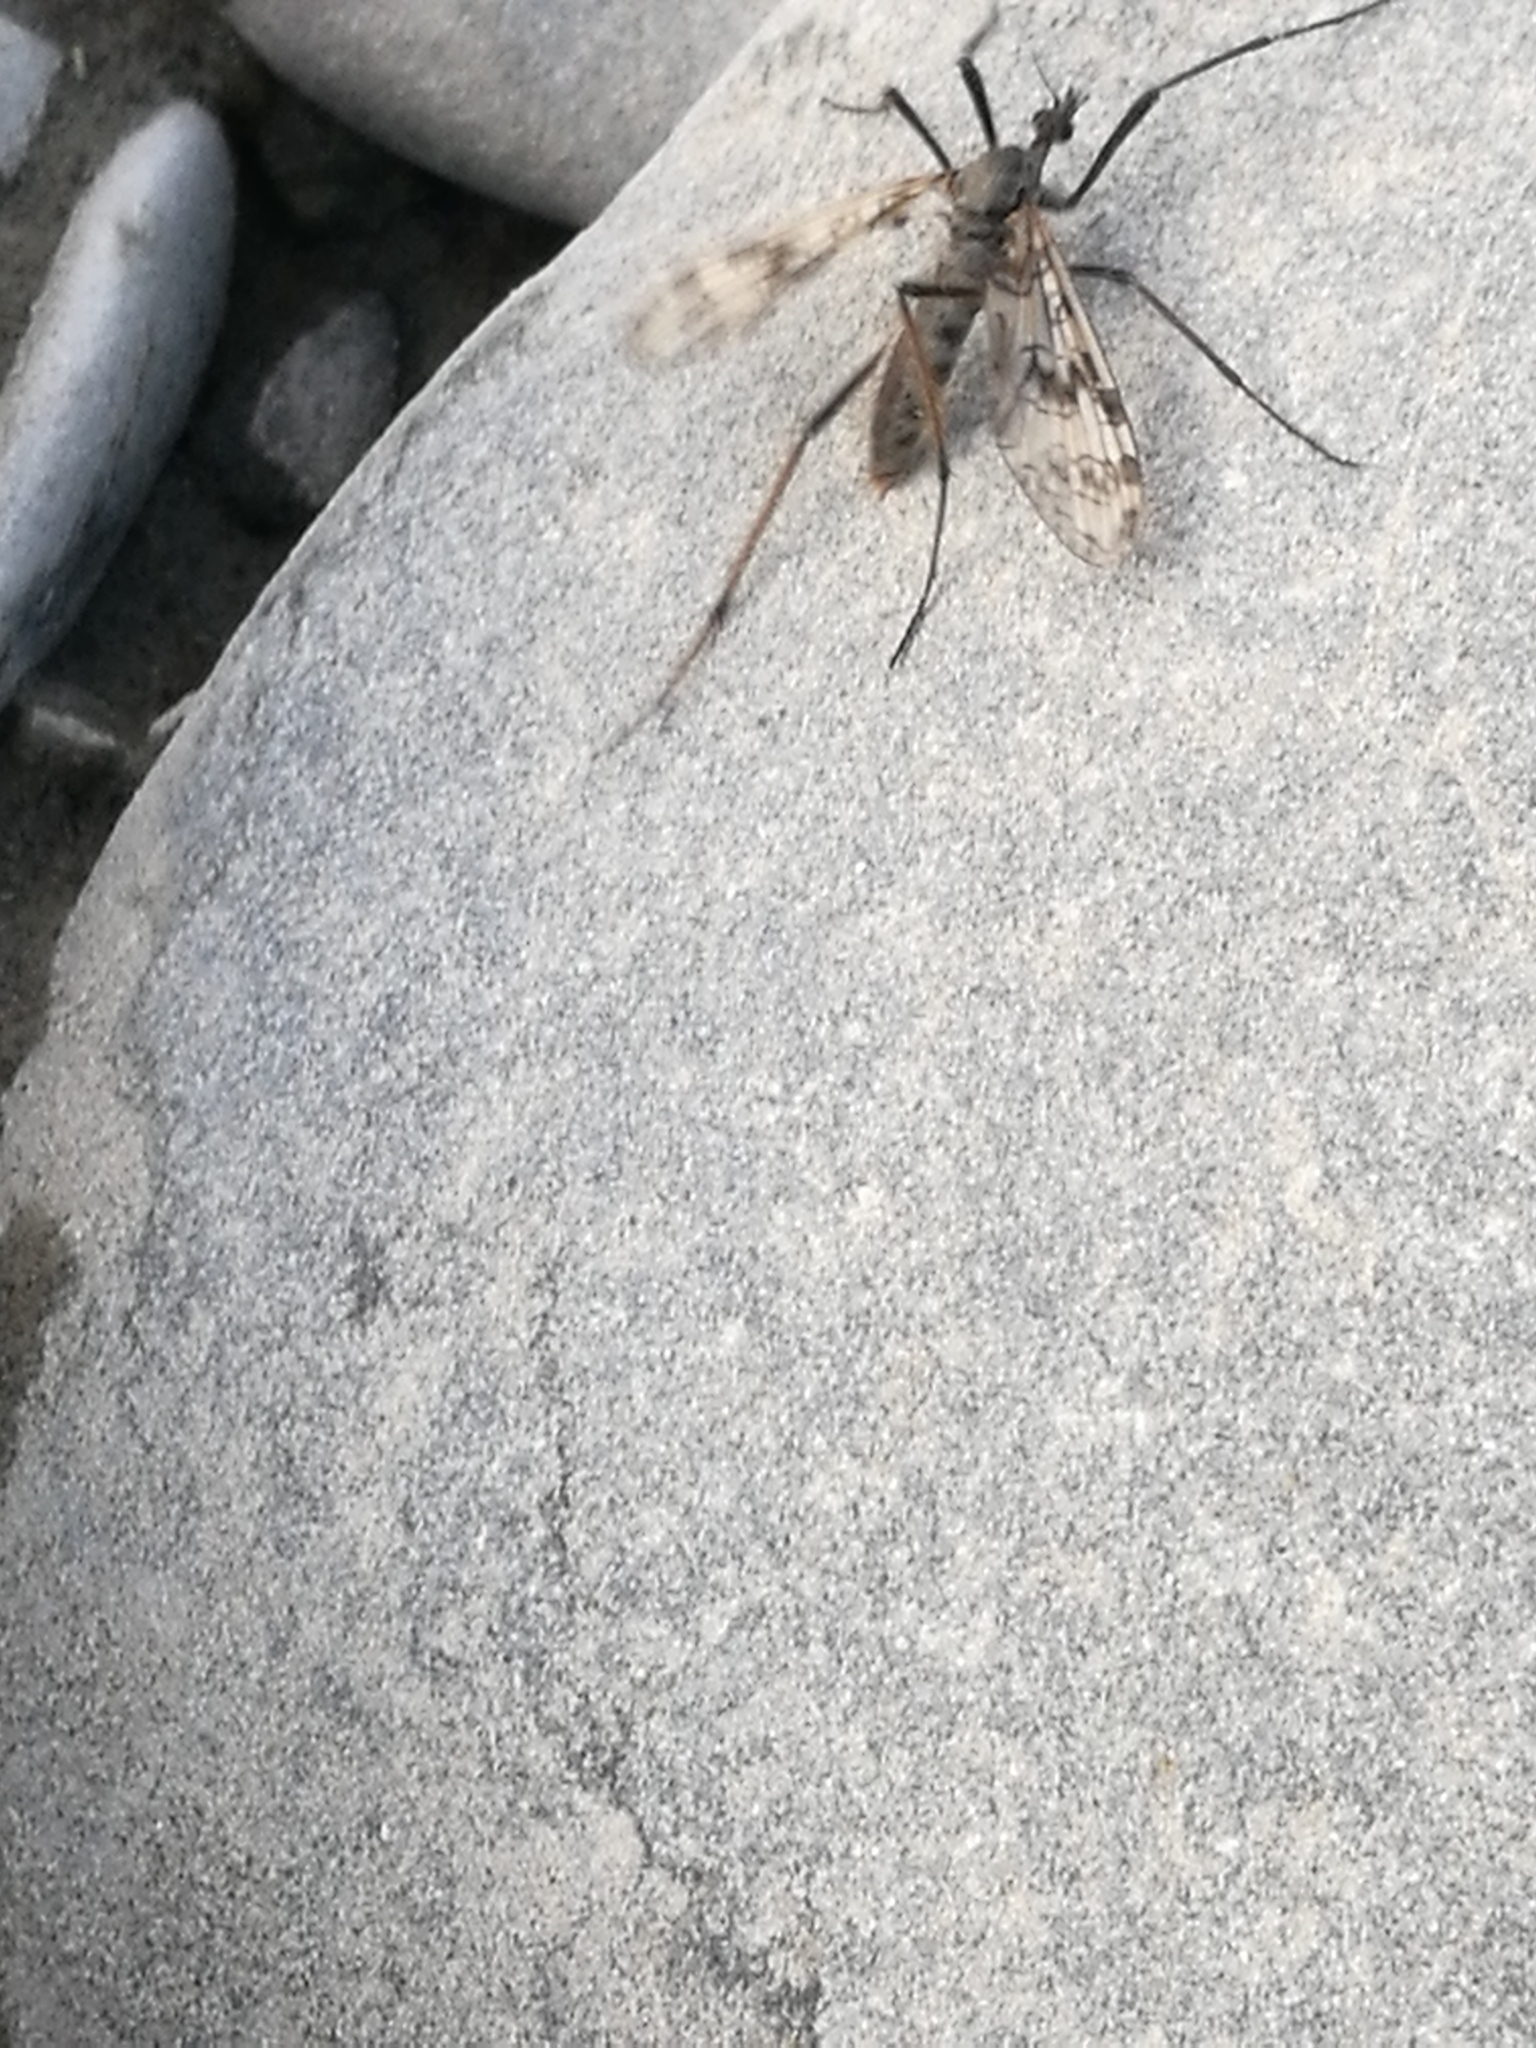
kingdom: Animalia
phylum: Arthropoda
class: Insecta
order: Diptera
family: Tanyderidae
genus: Tanyderus
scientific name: Tanyderus varipes
